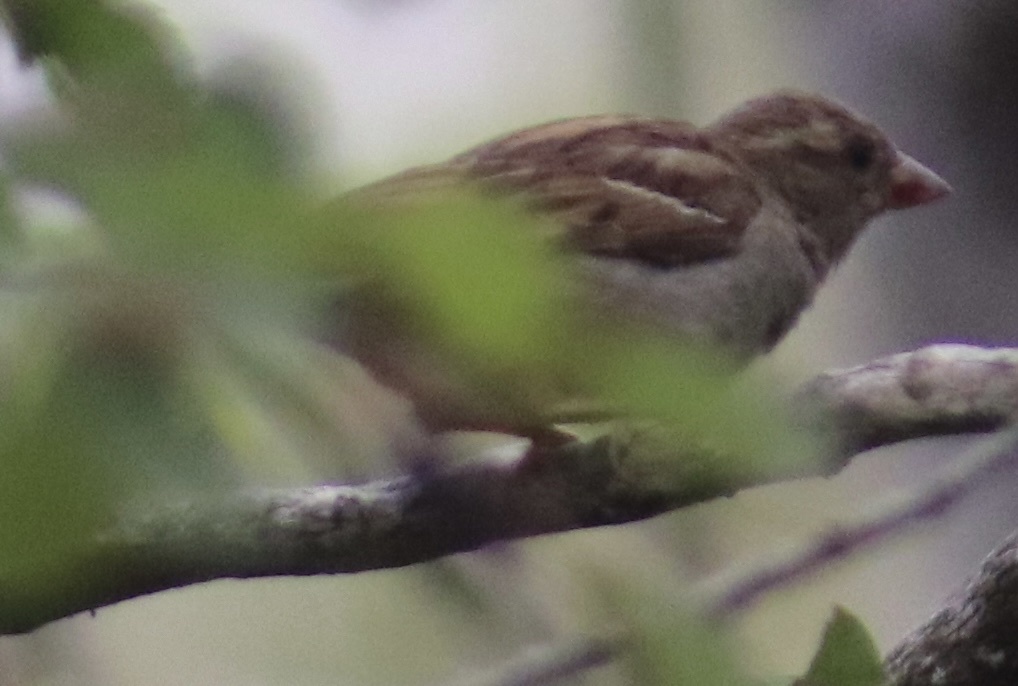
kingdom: Animalia
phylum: Chordata
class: Aves
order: Passeriformes
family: Passeridae
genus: Passer
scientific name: Passer domesticus
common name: House sparrow
